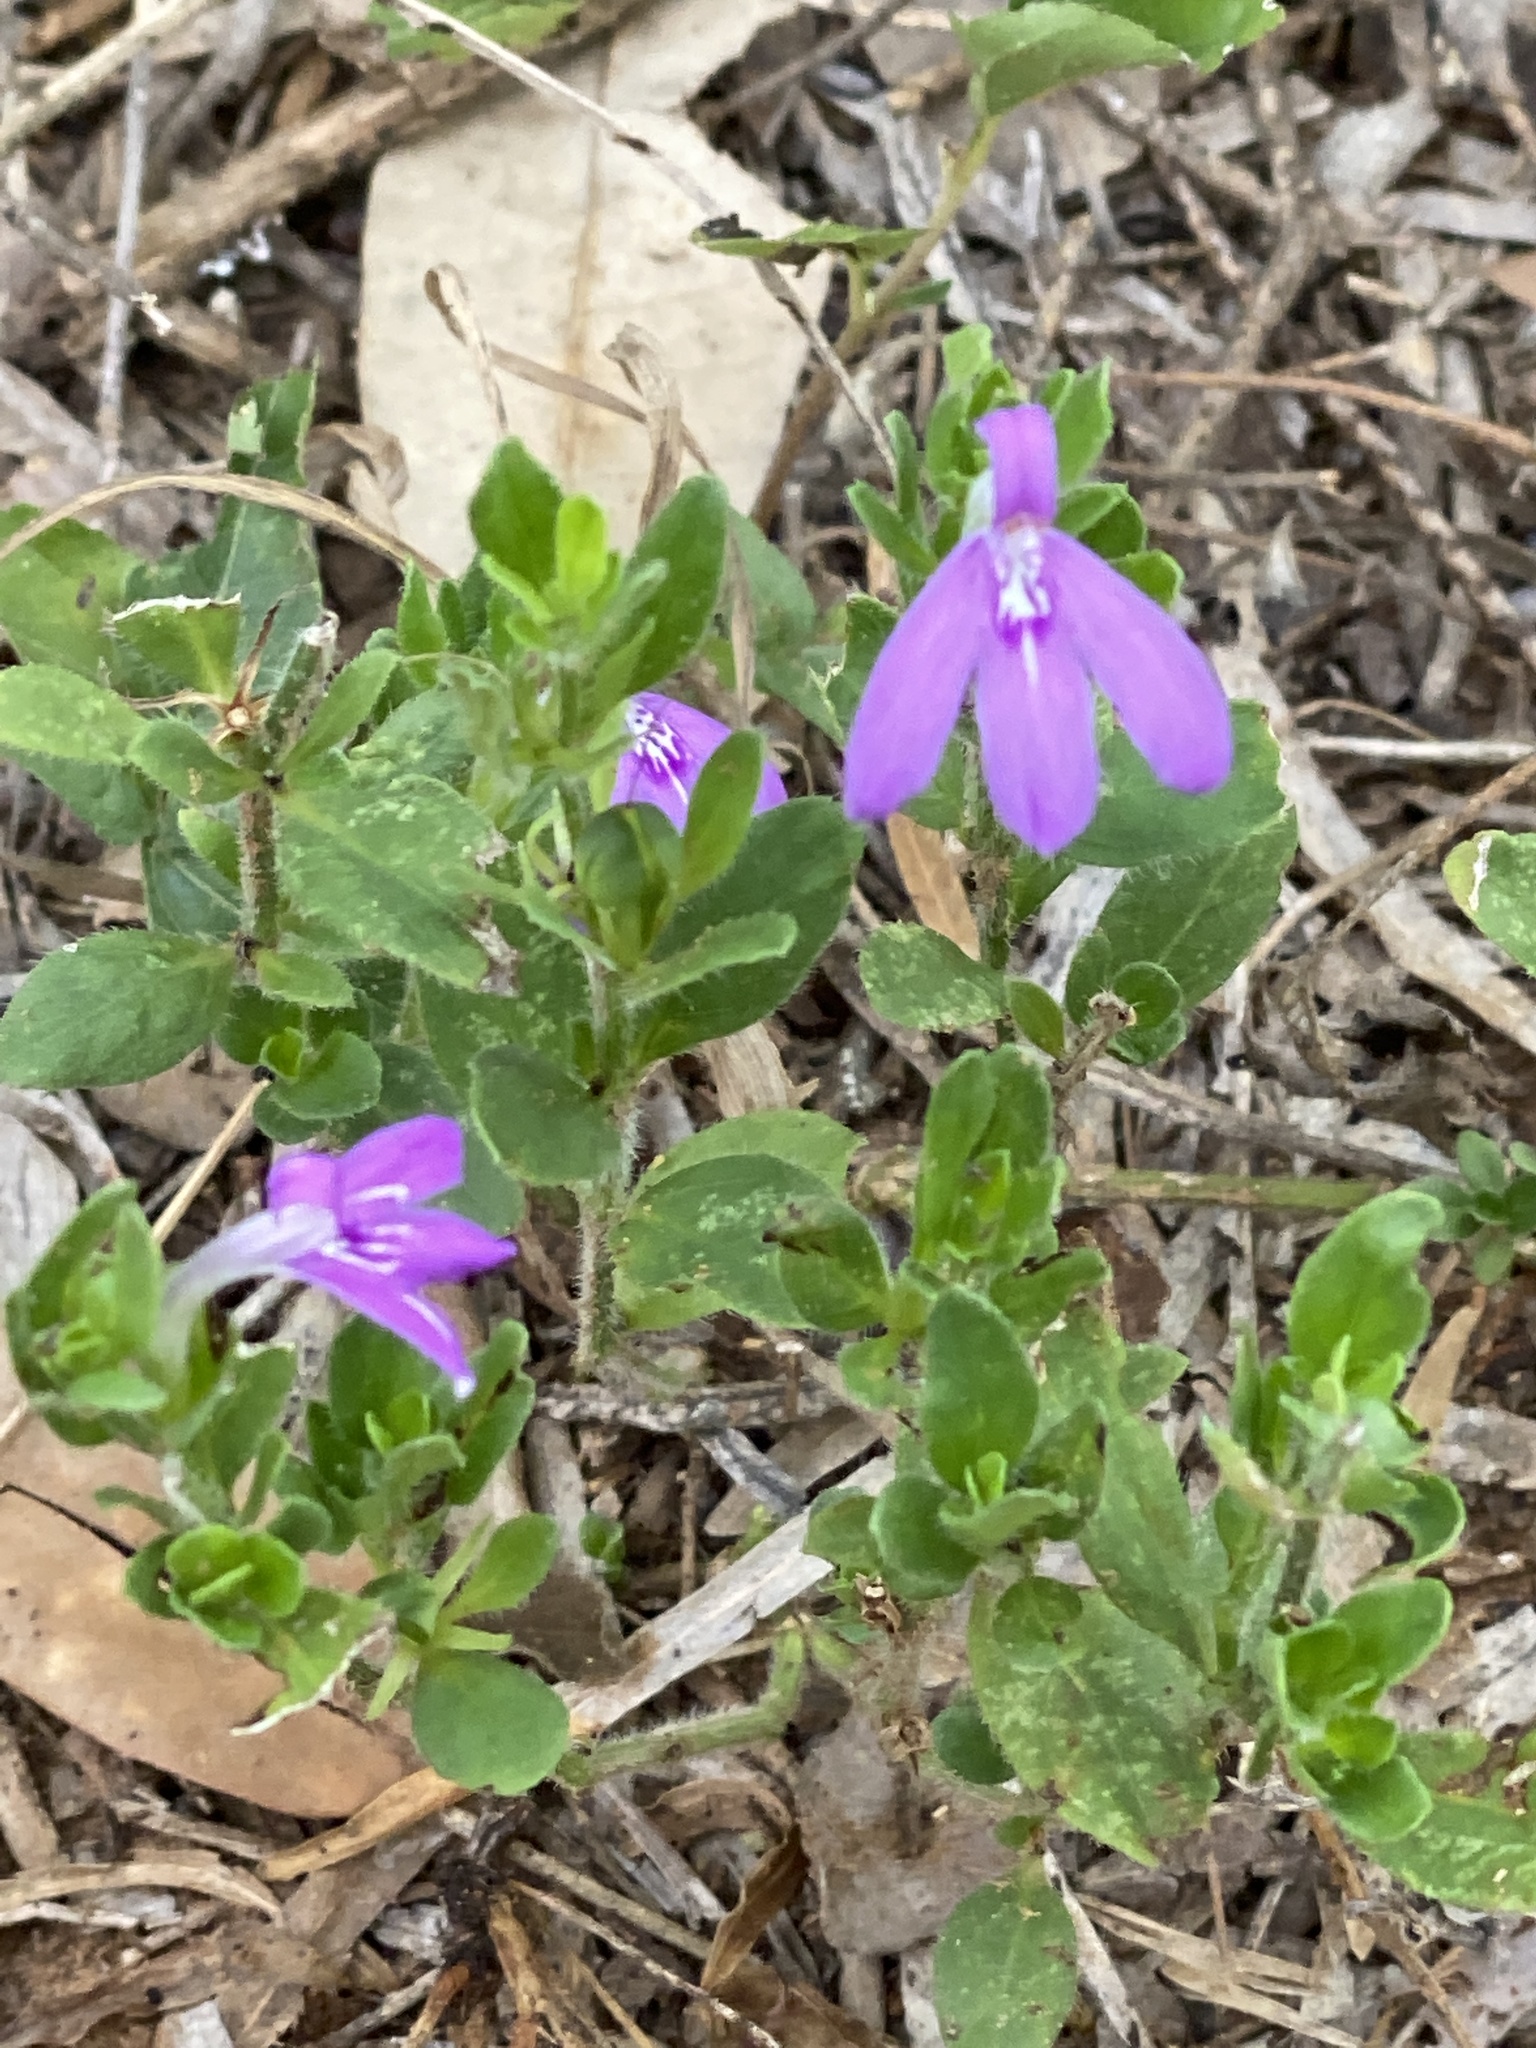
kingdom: Plantae
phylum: Tracheophyta
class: Magnoliopsida
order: Lamiales
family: Acanthaceae
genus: Justicia
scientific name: Justicia pilosella
